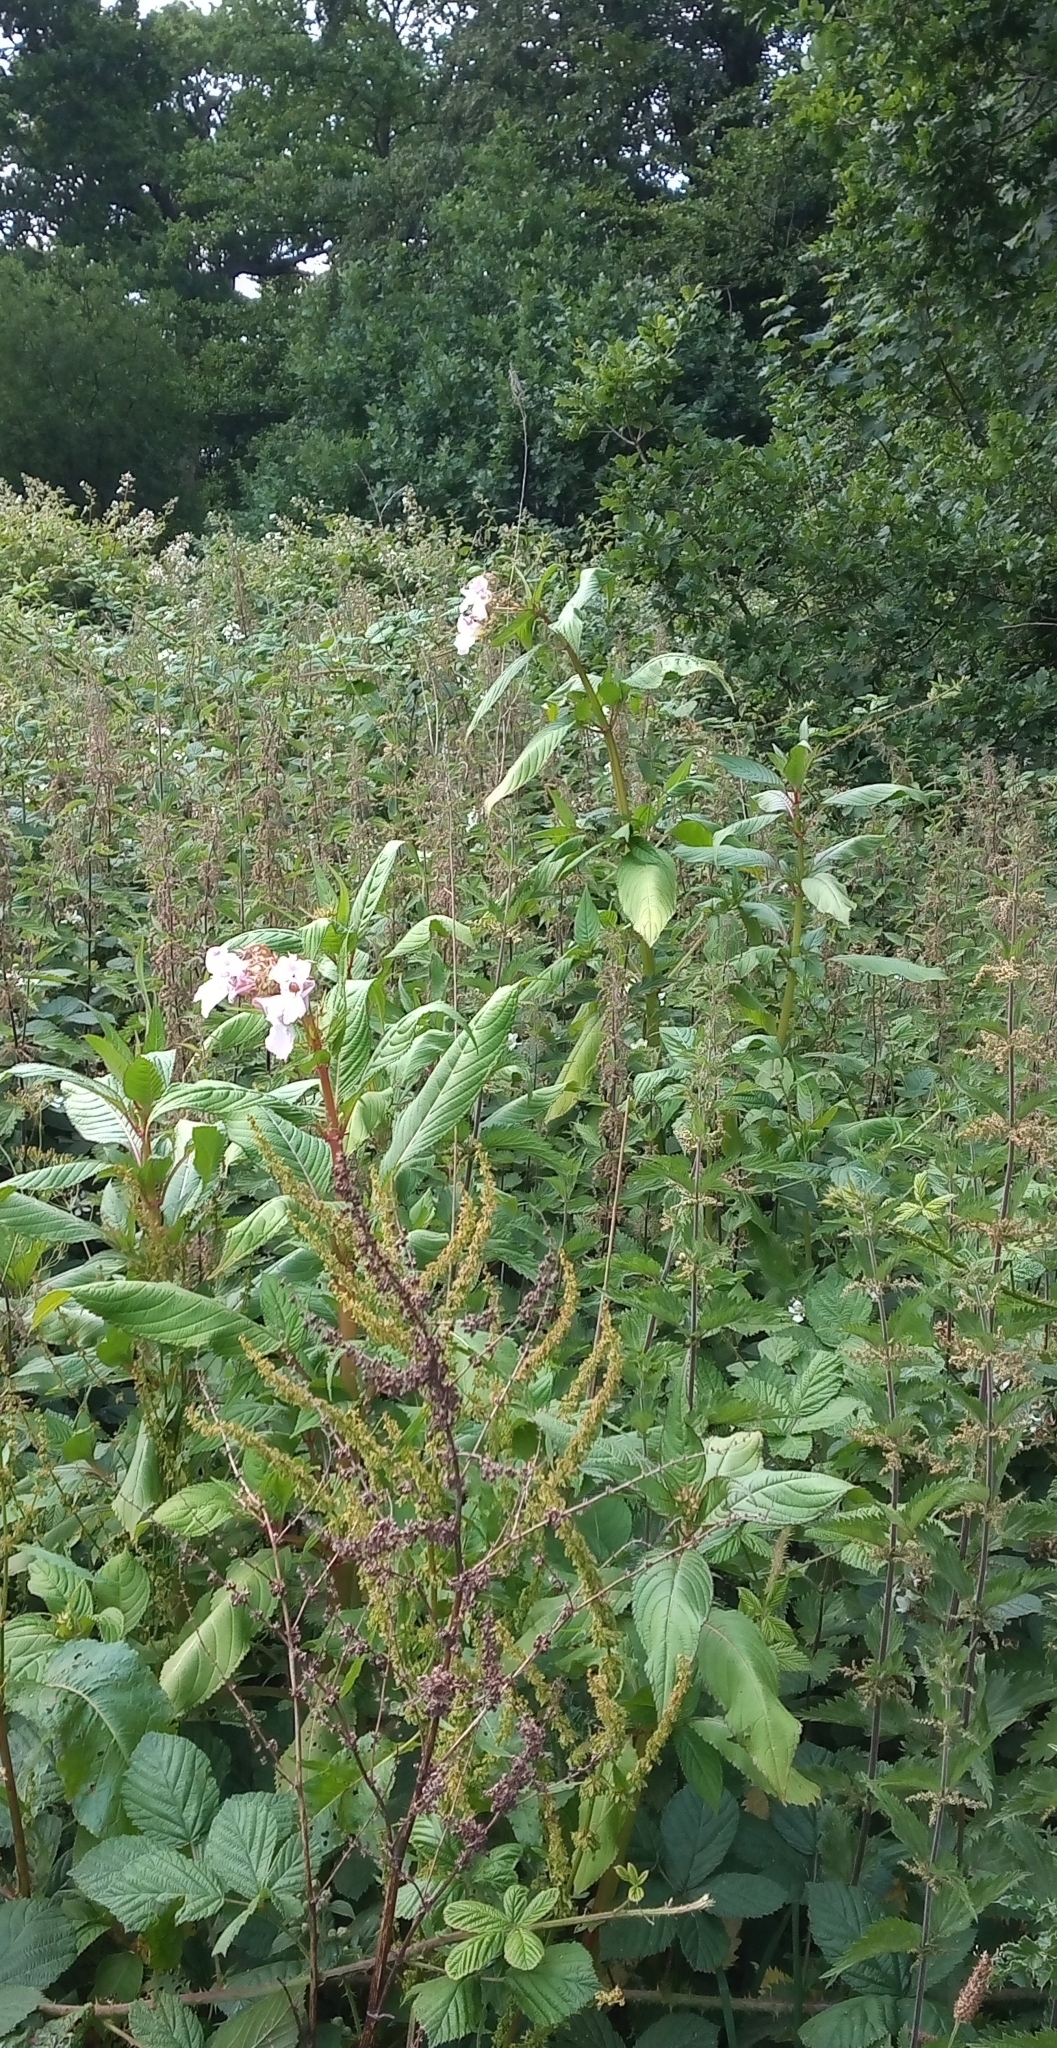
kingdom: Plantae
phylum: Tracheophyta
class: Magnoliopsida
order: Ericales
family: Balsaminaceae
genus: Impatiens
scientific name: Impatiens glandulifera
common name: Himalayan balsam
